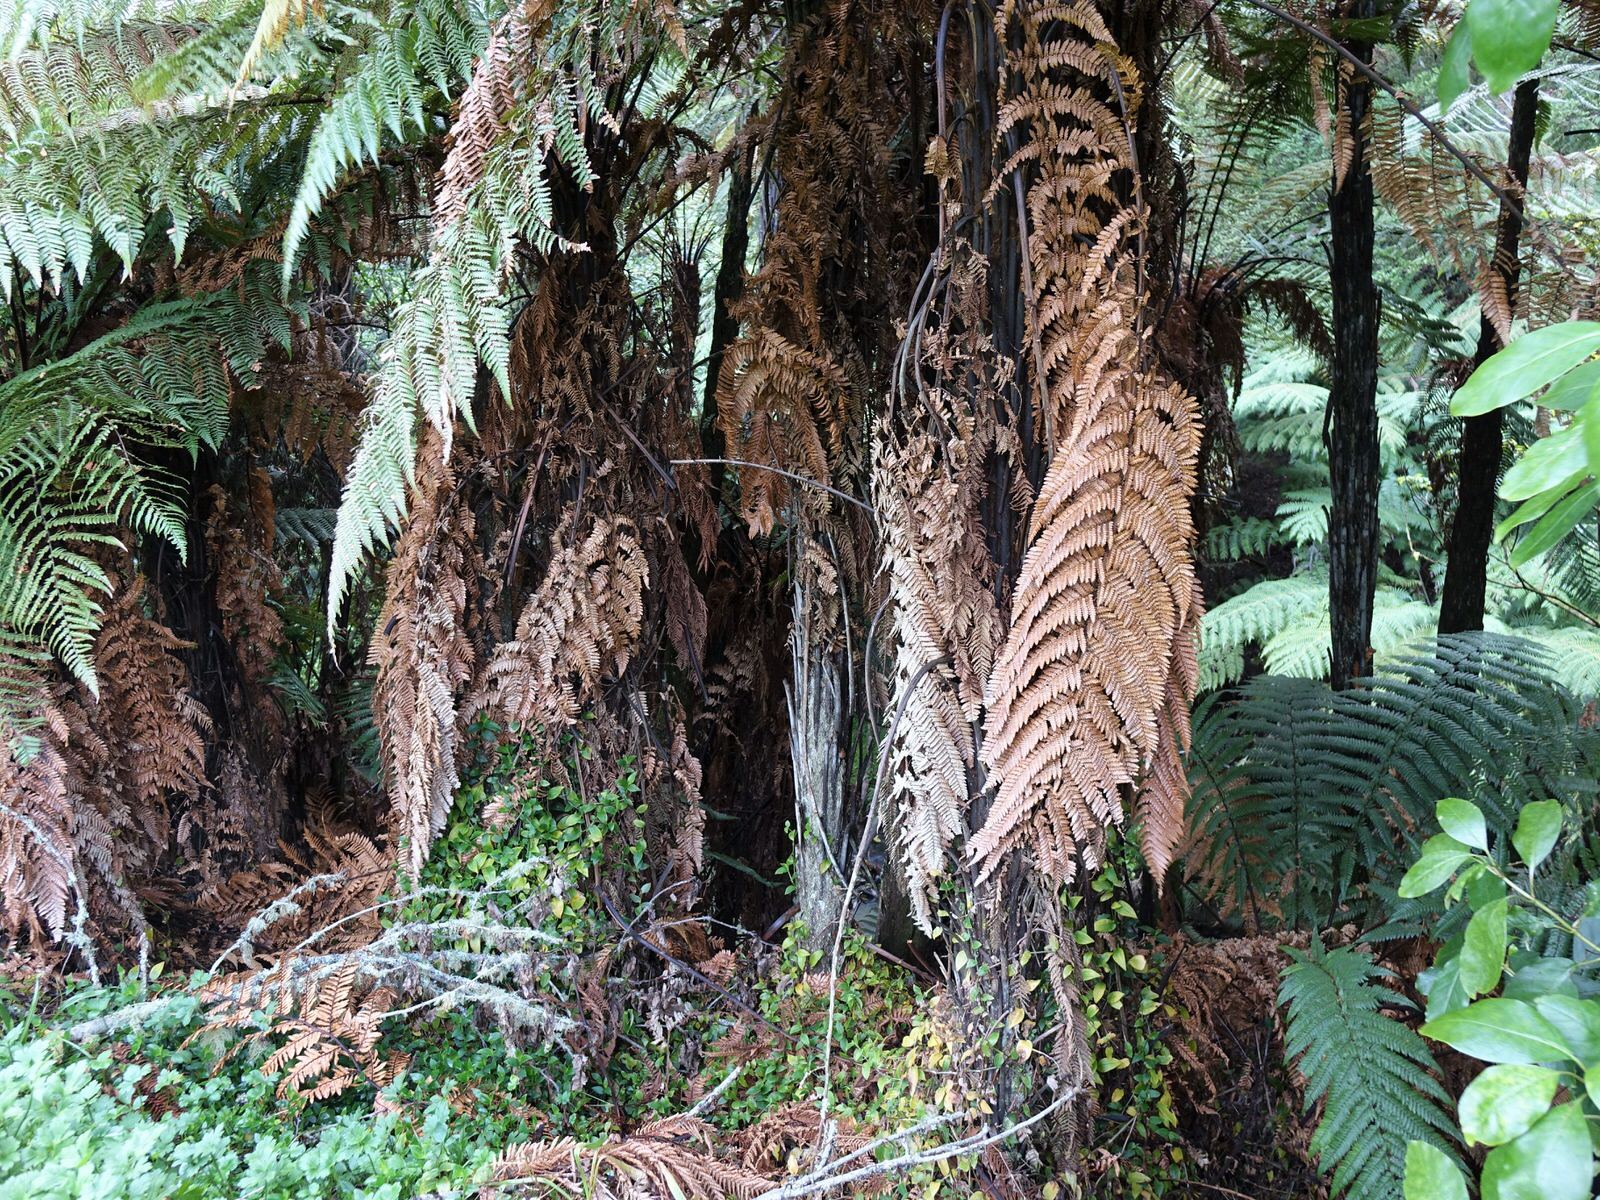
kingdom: Plantae
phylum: Tracheophyta
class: Polypodiopsida
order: Cyatheales
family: Dicksoniaceae
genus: Dicksonia
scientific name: Dicksonia squarrosa
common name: Hard treefern
